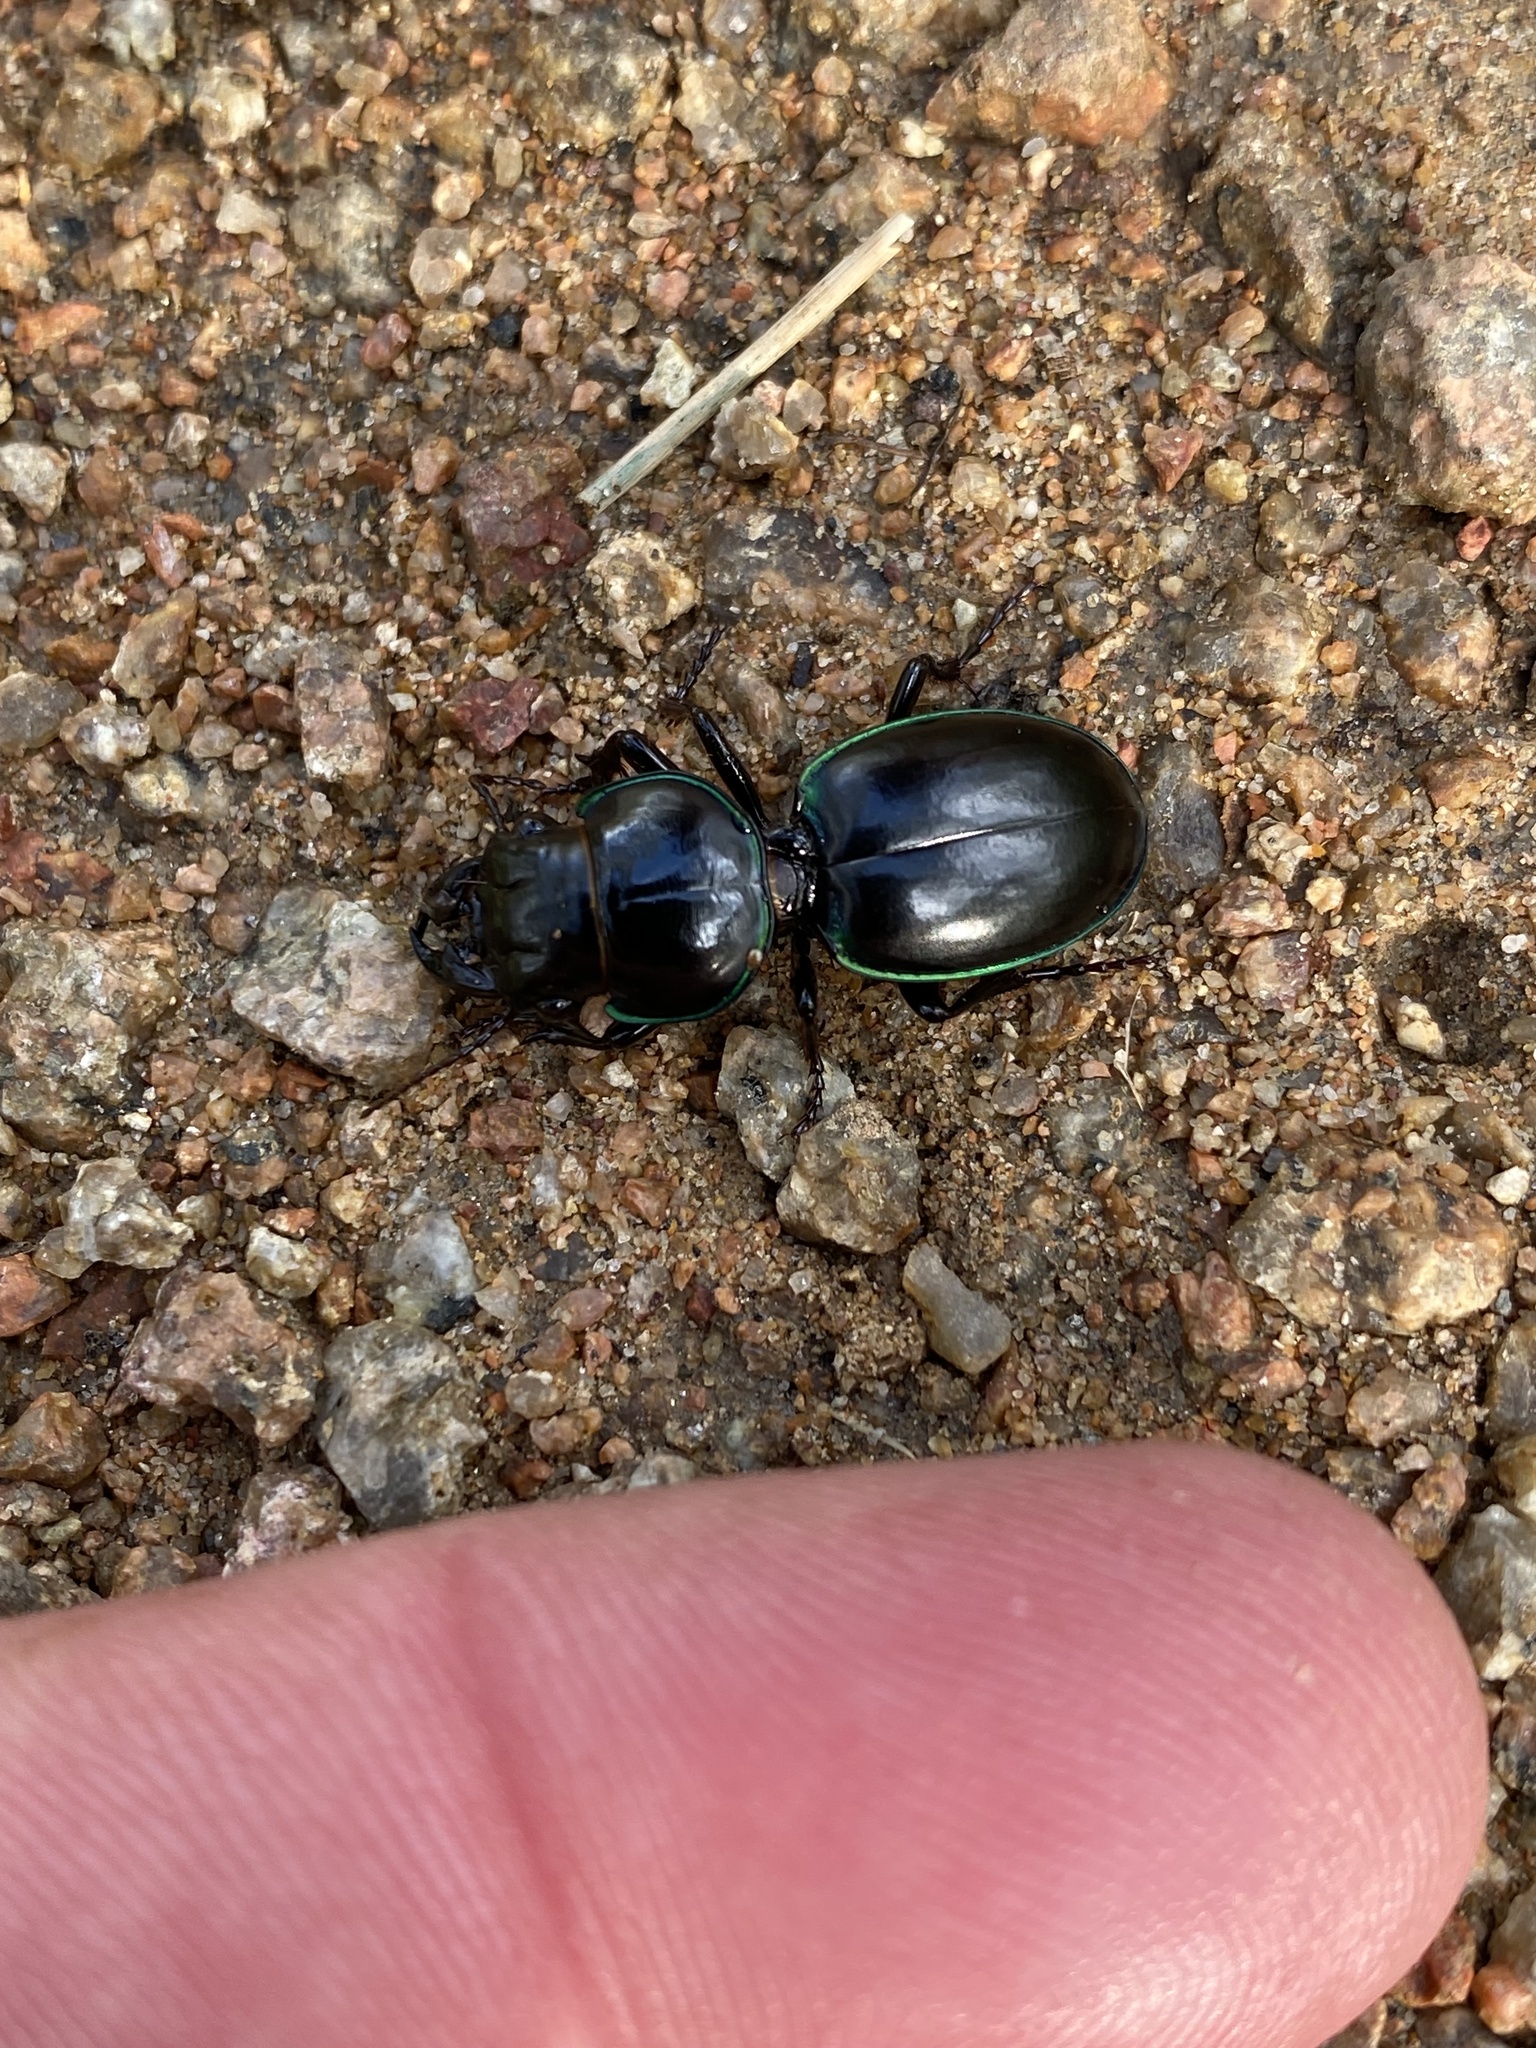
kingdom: Animalia
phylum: Arthropoda
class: Insecta
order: Coleoptera
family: Carabidae
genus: Carenum
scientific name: Carenum marginatum
